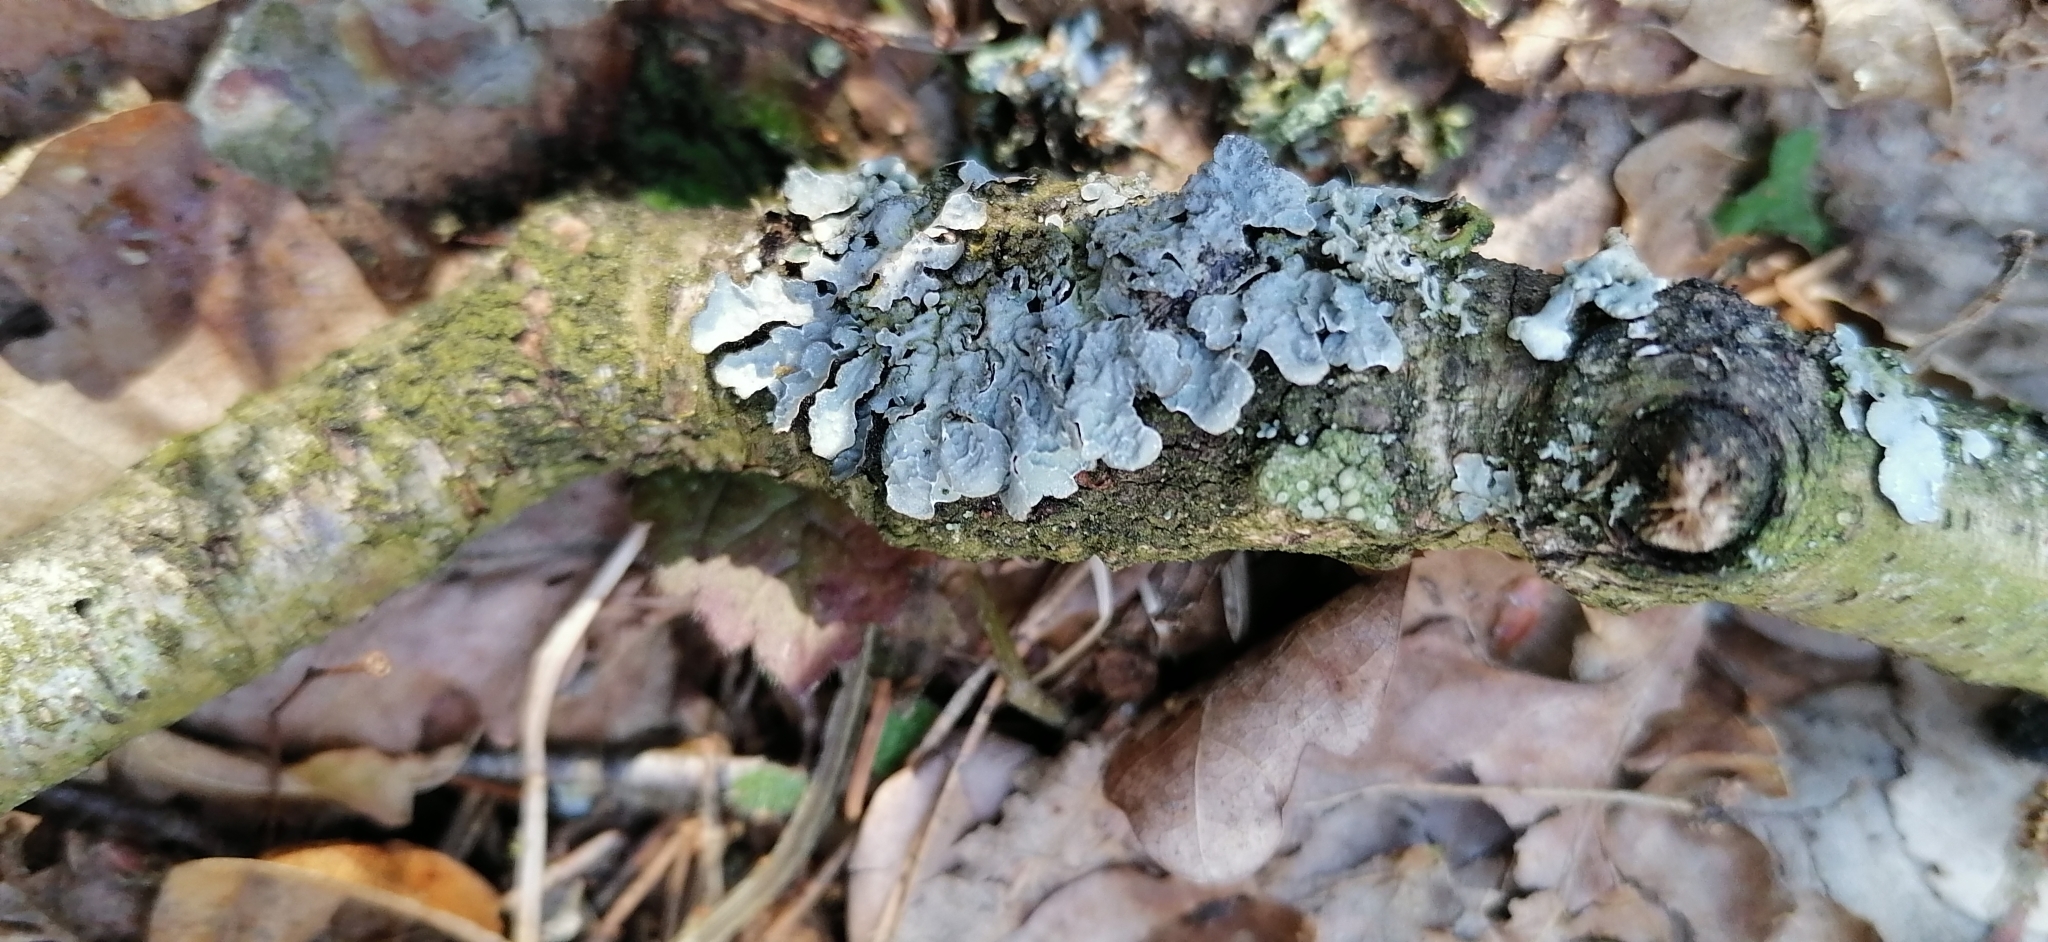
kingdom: Fungi
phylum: Ascomycota
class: Lecanoromycetes
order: Lecanorales
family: Parmeliaceae
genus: Parmelia
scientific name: Parmelia sulcata
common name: Netted shield lichen
